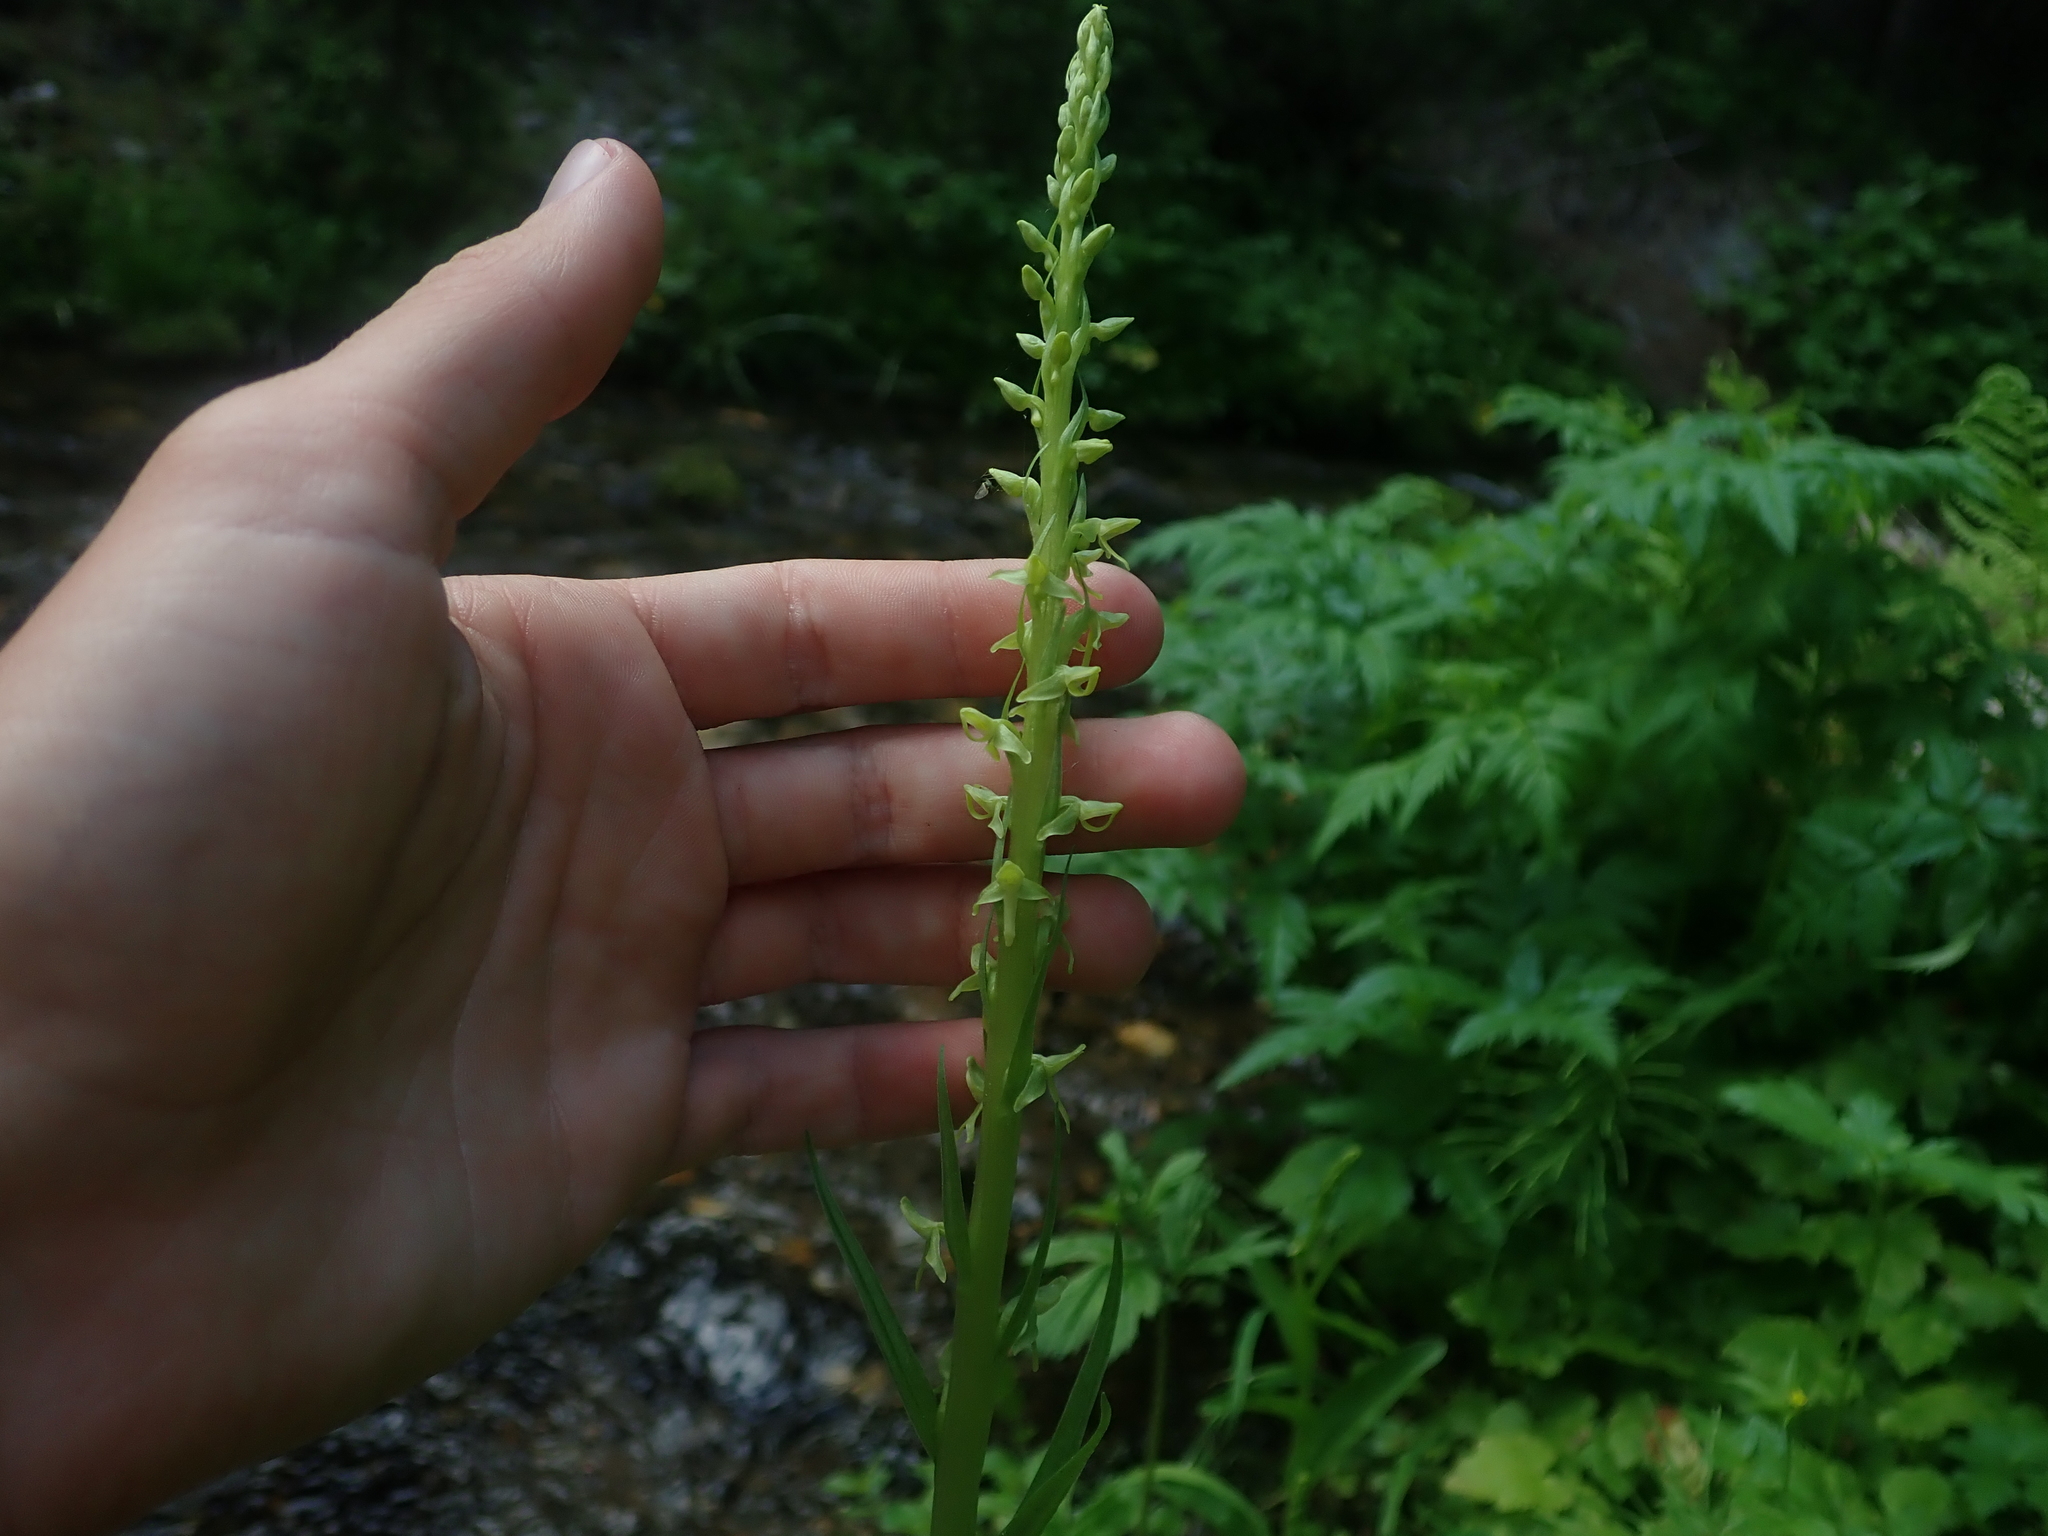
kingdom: Plantae
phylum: Tracheophyta
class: Liliopsida
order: Asparagales
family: Orchidaceae
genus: Platanthera
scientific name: Platanthera stricta
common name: Slender bog orchid
